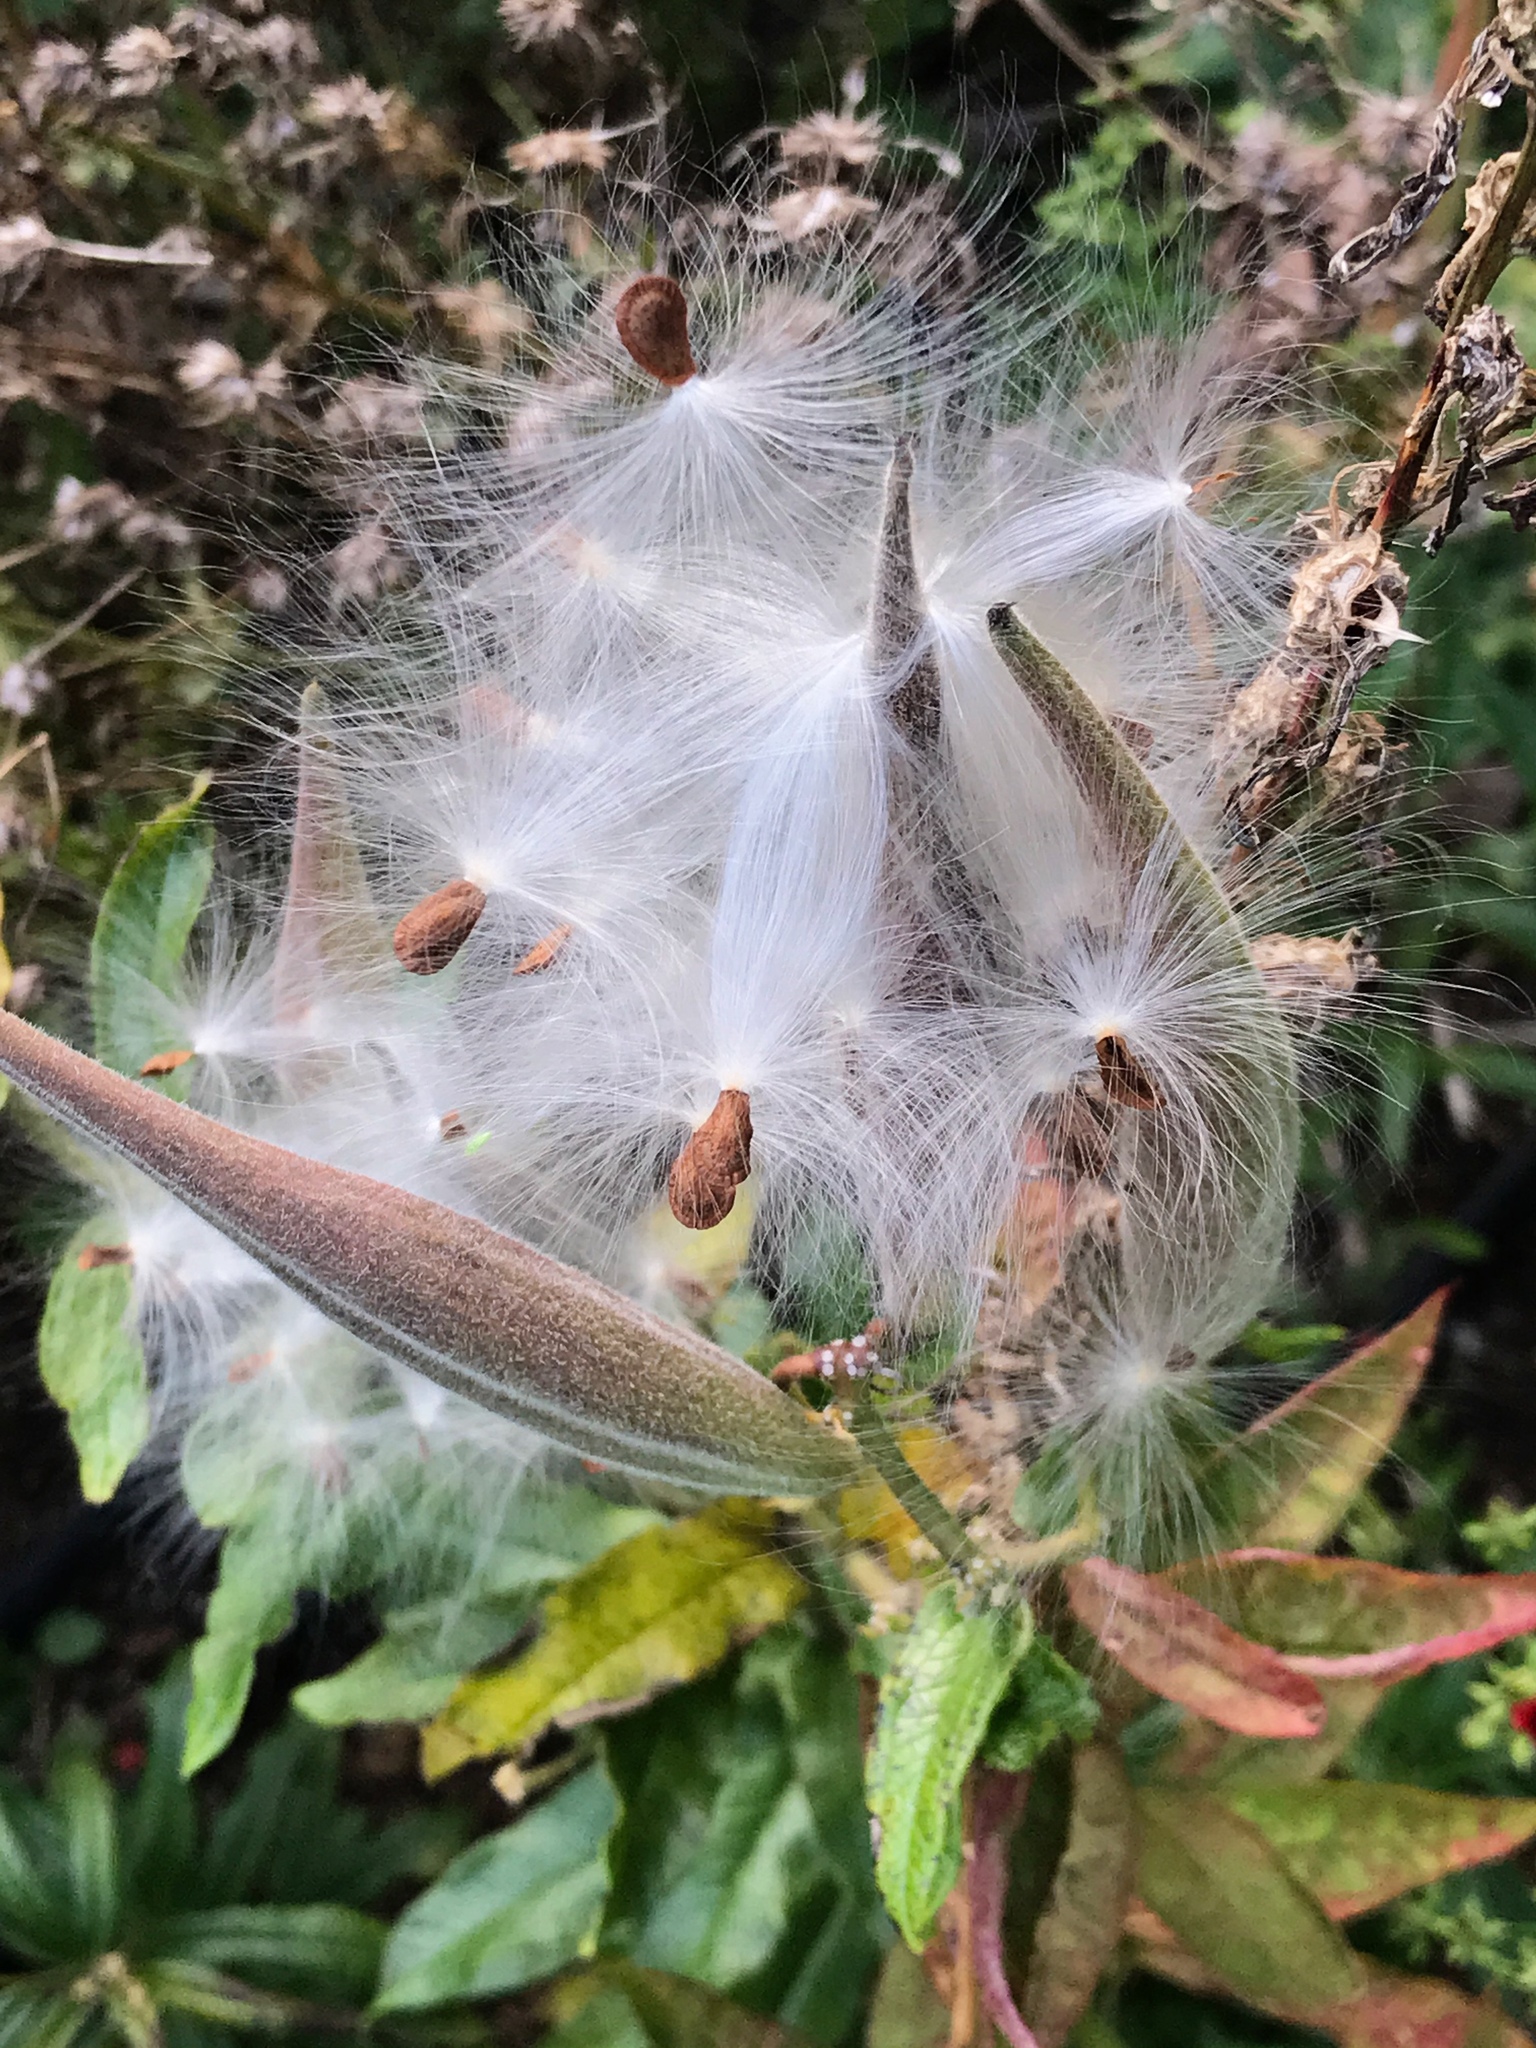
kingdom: Plantae
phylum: Tracheophyta
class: Magnoliopsida
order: Gentianales
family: Apocynaceae
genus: Asclepias
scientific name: Asclepias tuberosa
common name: Butterfly milkweed
